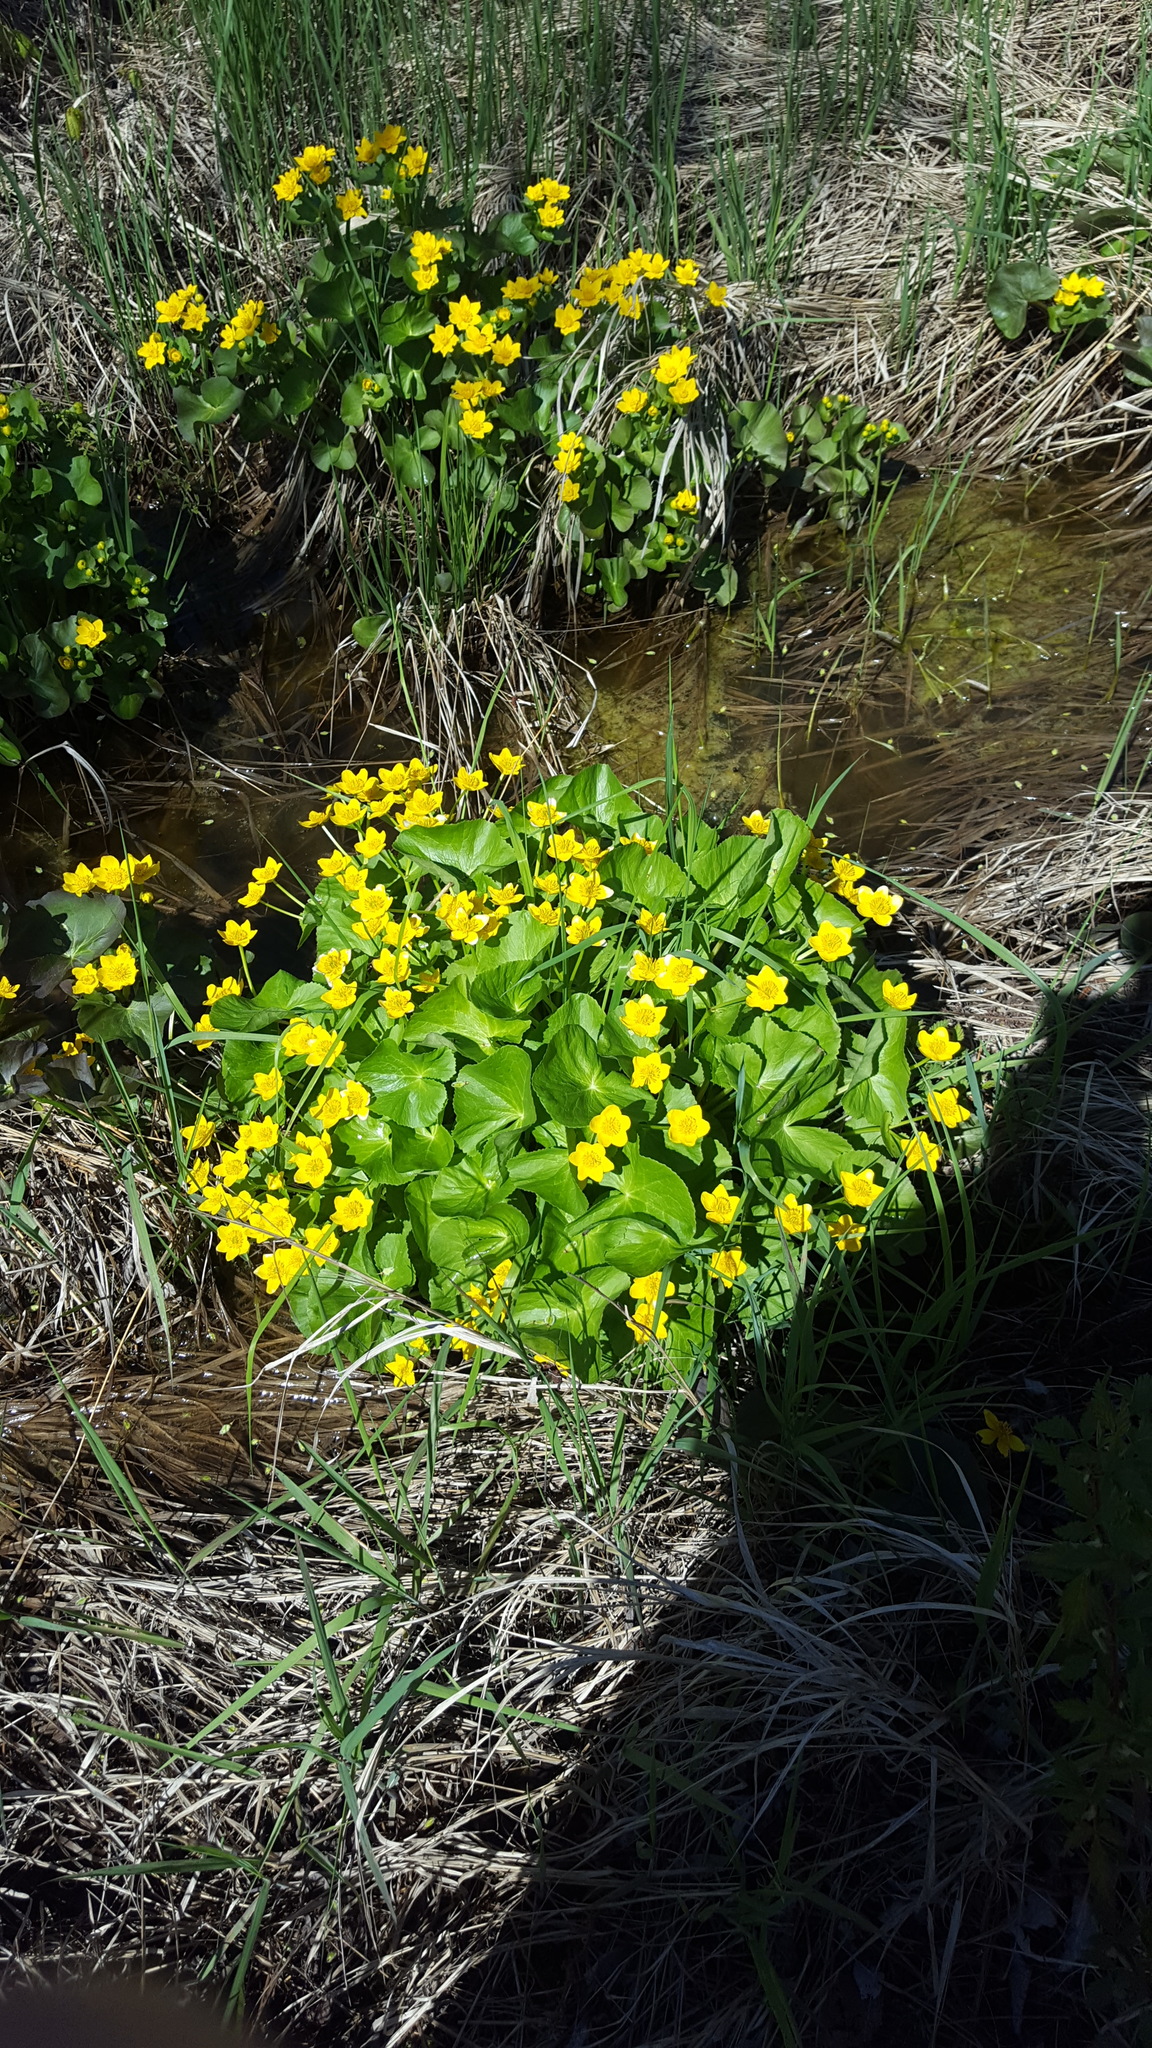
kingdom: Plantae
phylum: Tracheophyta
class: Magnoliopsida
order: Ranunculales
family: Ranunculaceae
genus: Caltha
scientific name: Caltha palustris
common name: Marsh marigold
